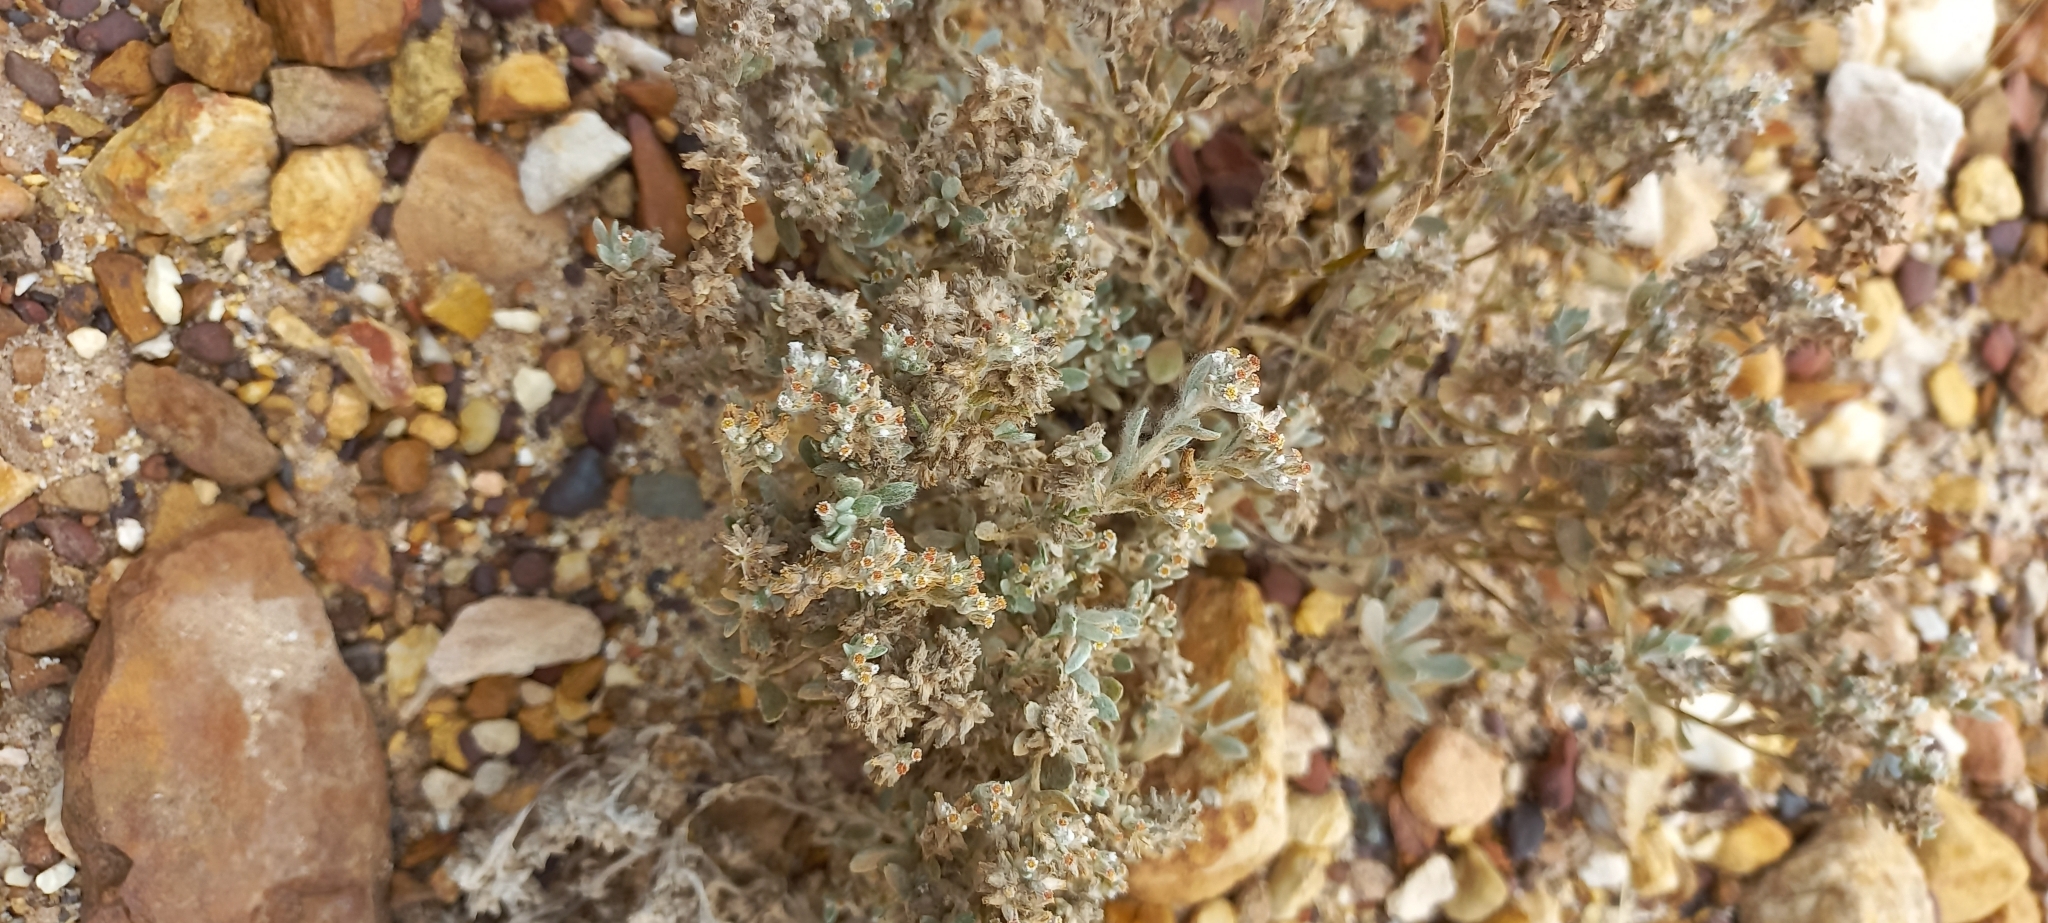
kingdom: Plantae
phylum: Tracheophyta
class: Magnoliopsida
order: Asterales
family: Asteraceae
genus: Helichrysum
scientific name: Helichrysum litorale
